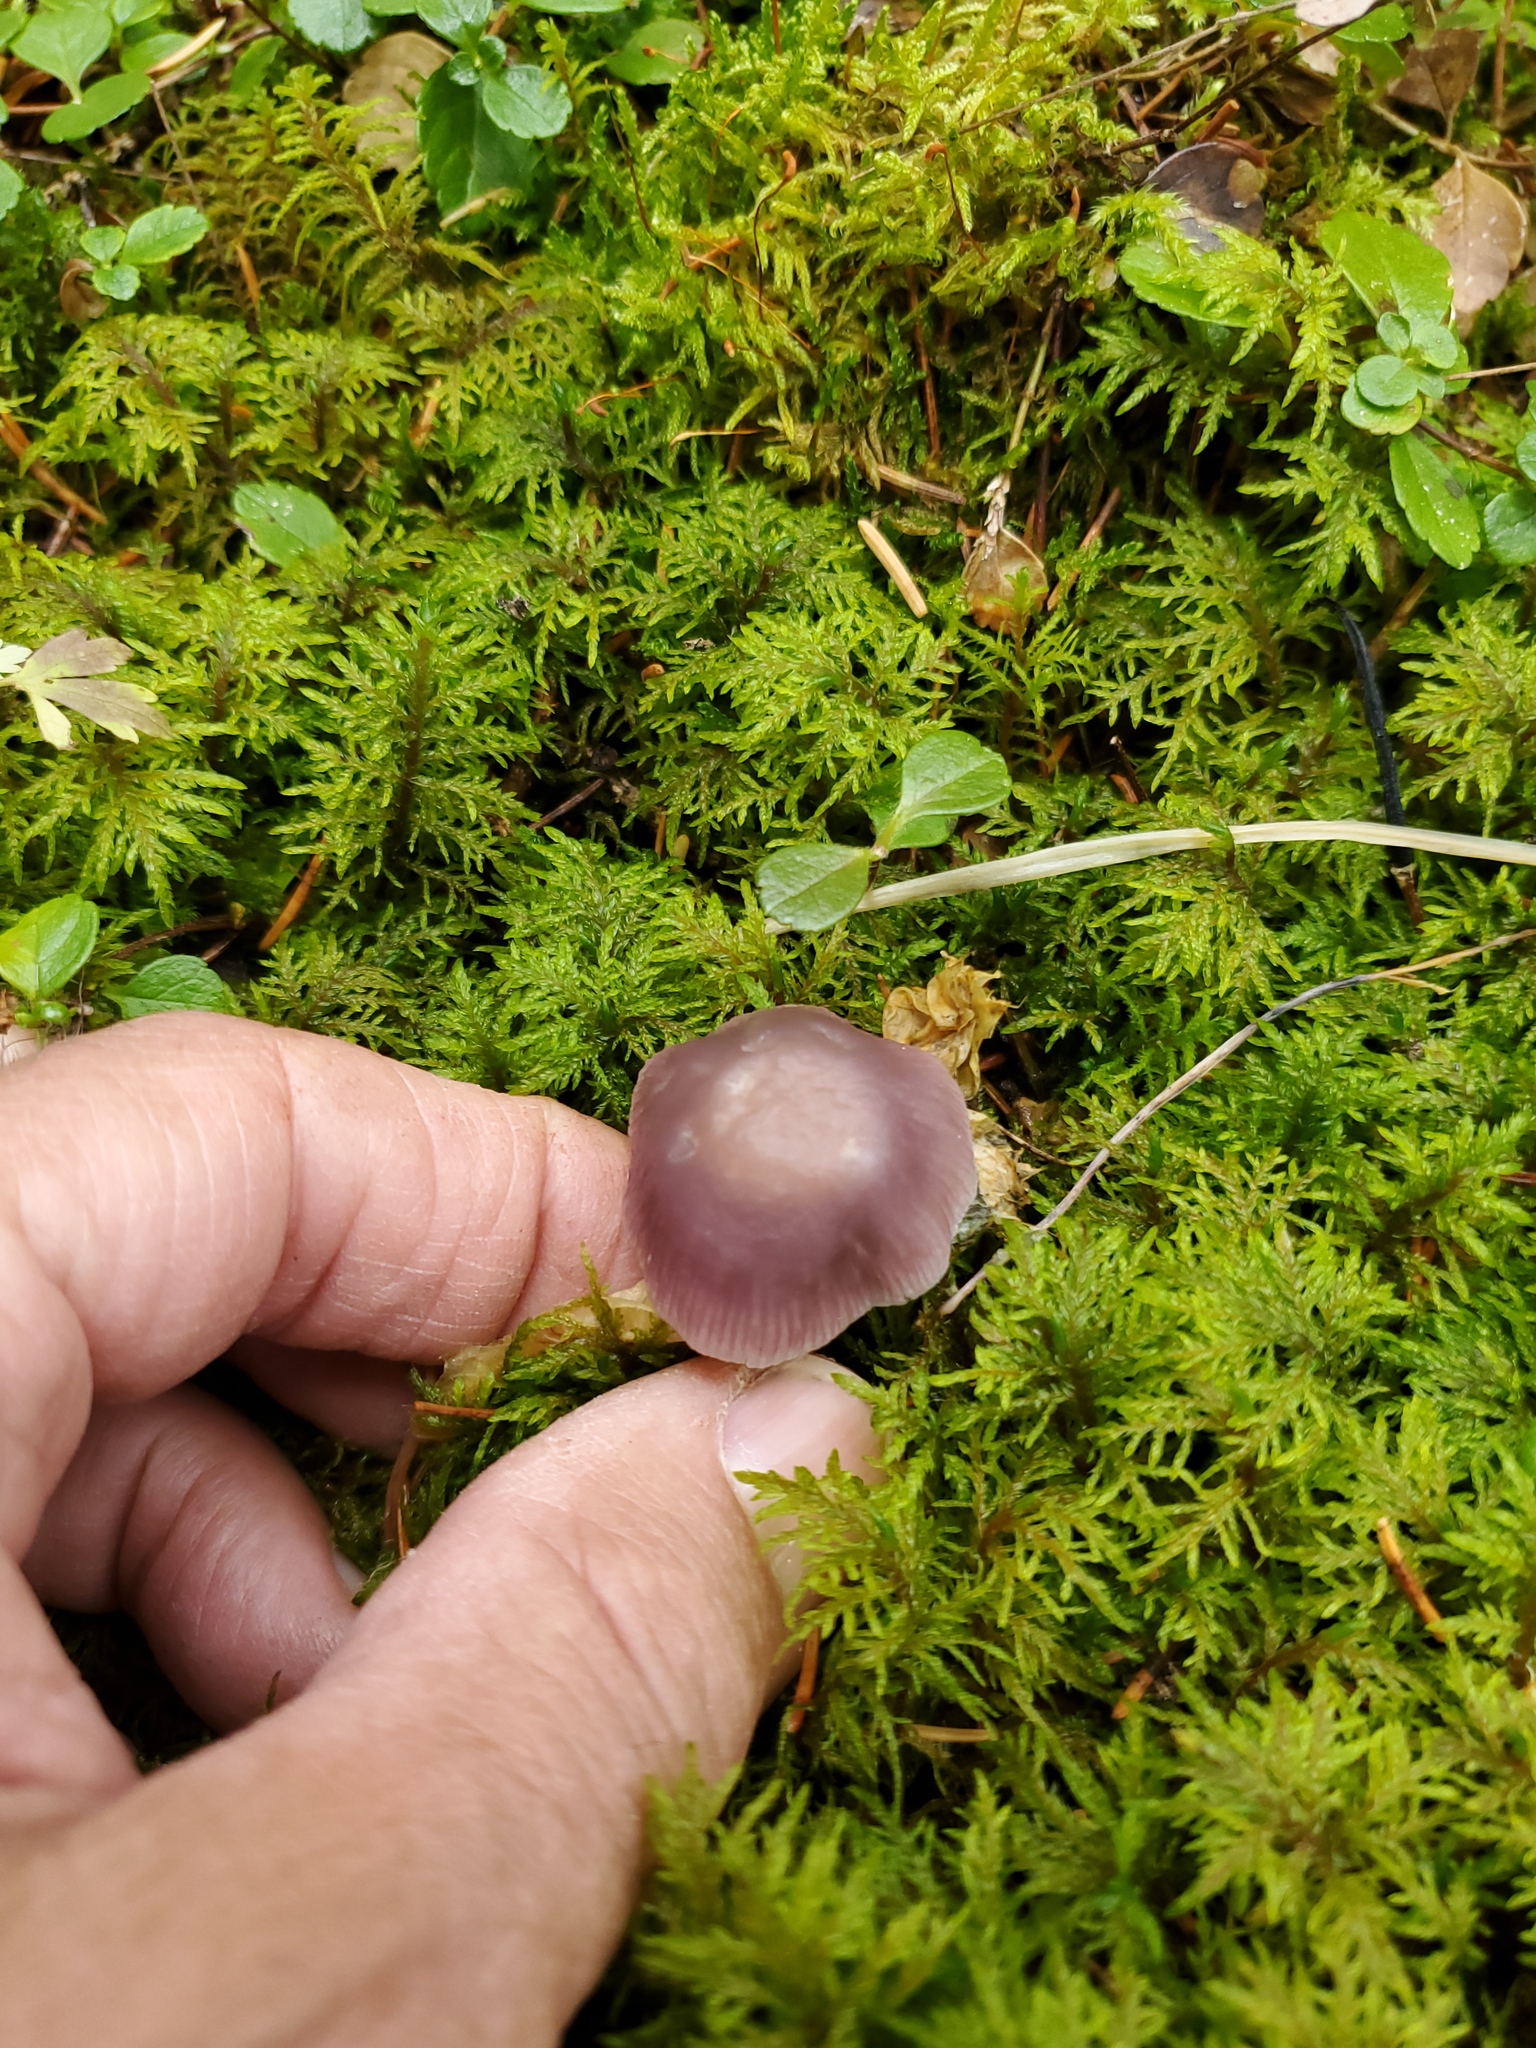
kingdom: Fungi
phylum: Basidiomycota
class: Agaricomycetes
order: Agaricales
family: Mycenaceae
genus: Mycena
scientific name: Mycena pura
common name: Lilac bonnet
